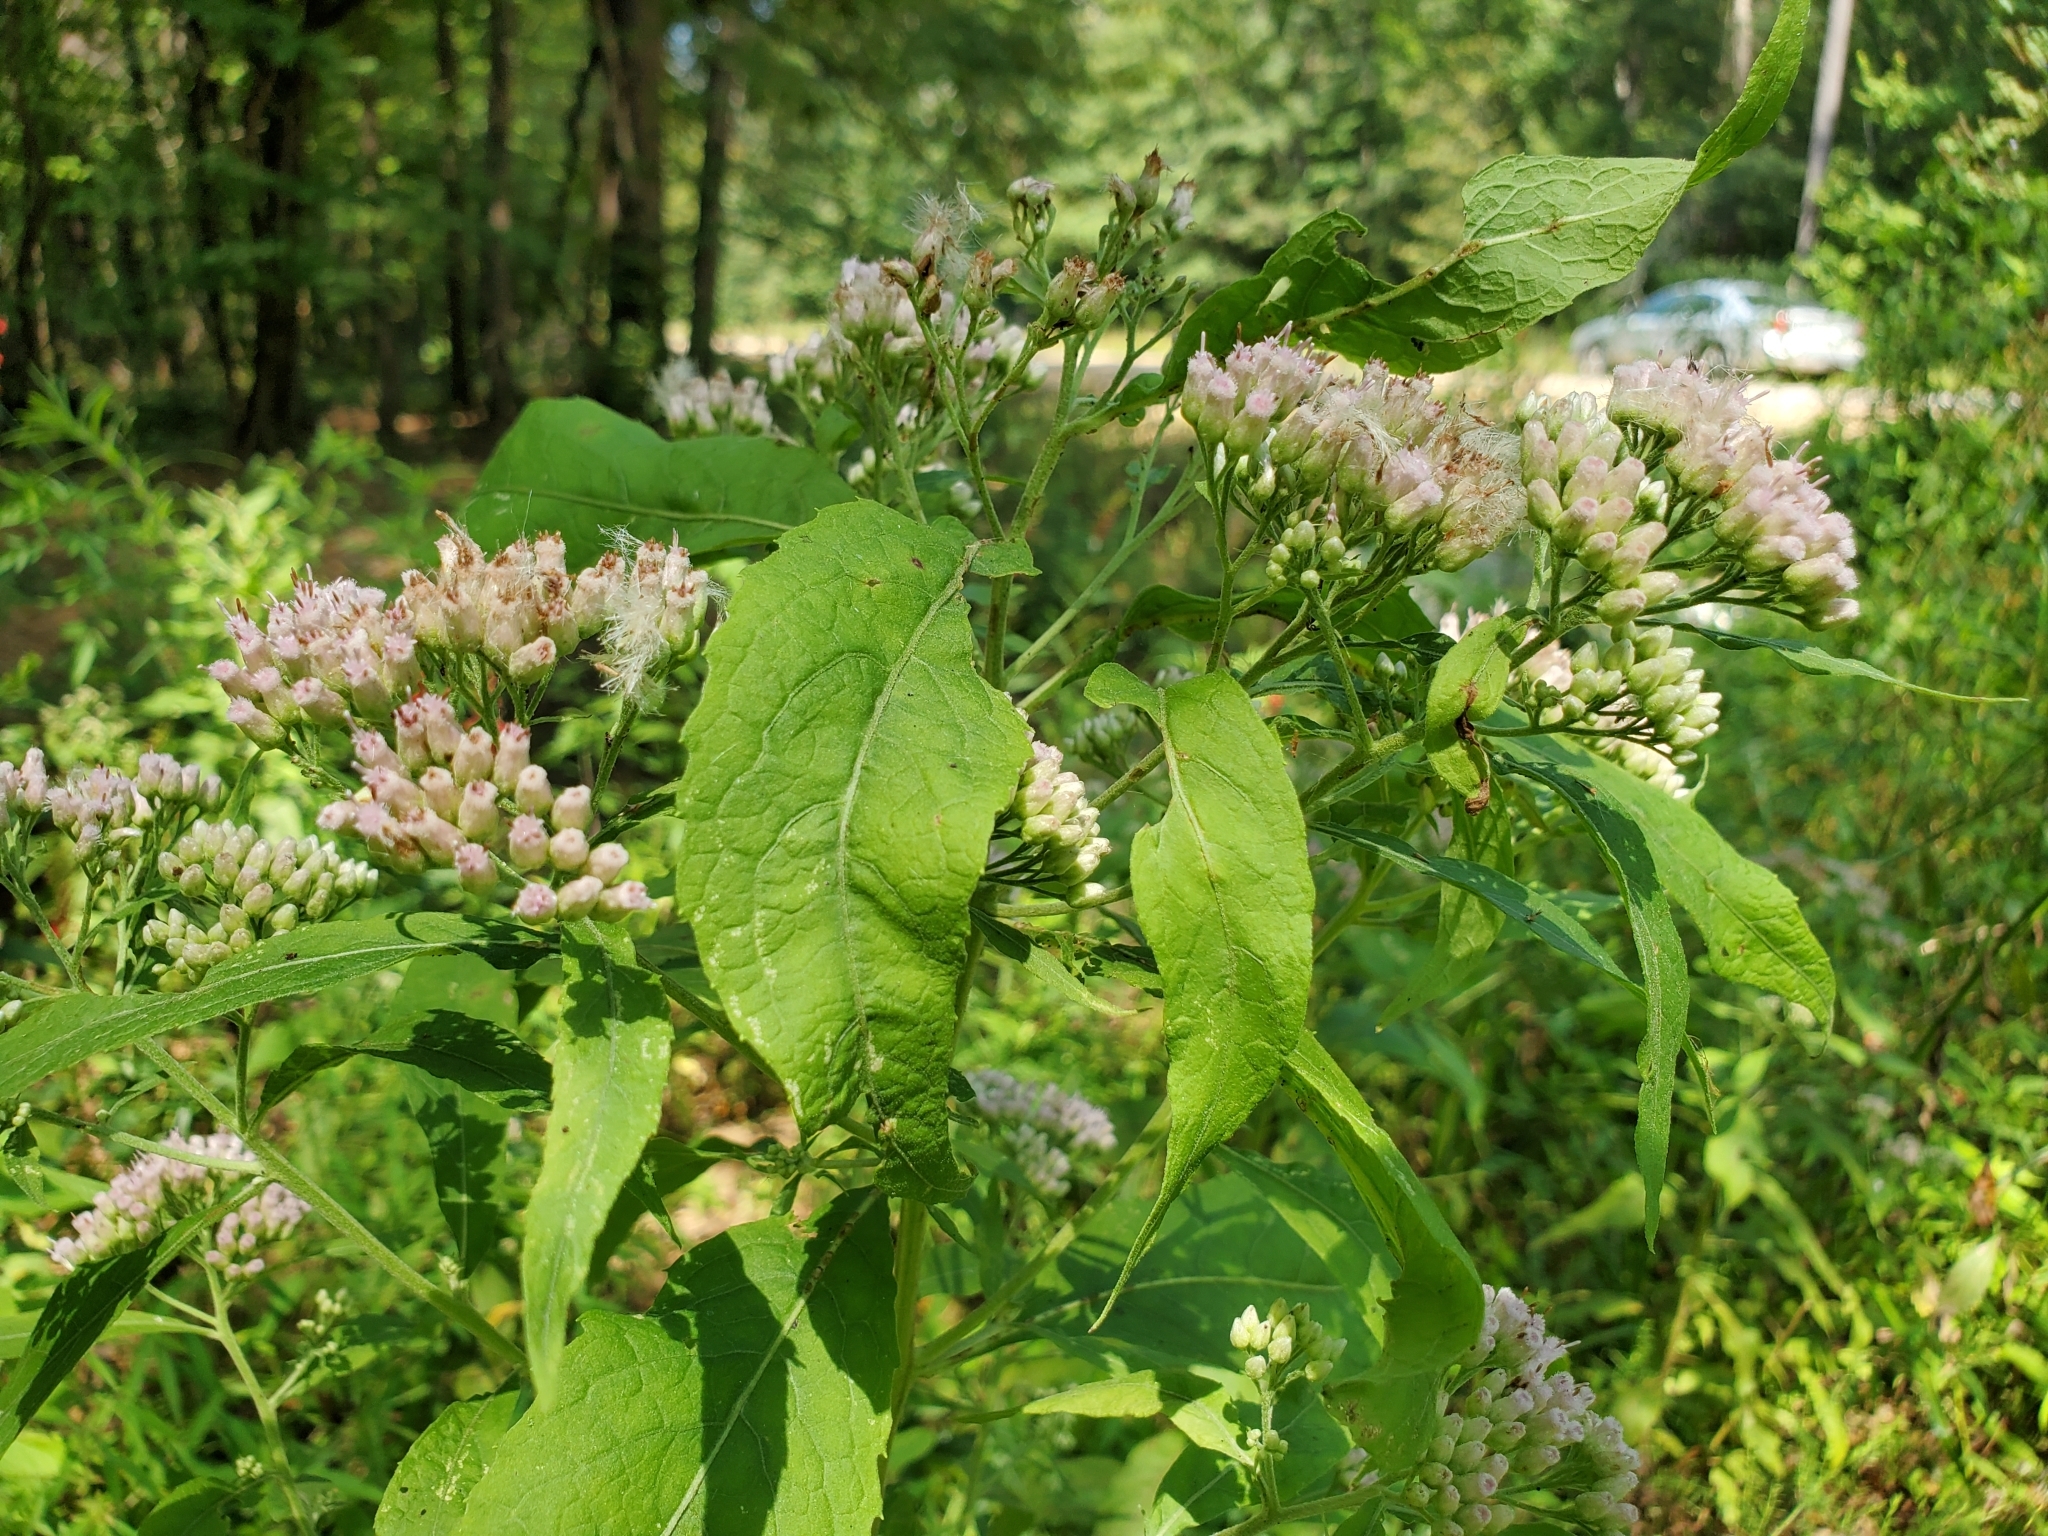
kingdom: Plantae
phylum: Tracheophyta
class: Magnoliopsida
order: Asterales
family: Asteraceae
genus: Pluchea
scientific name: Pluchea camphorata
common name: Camphor pluchea
